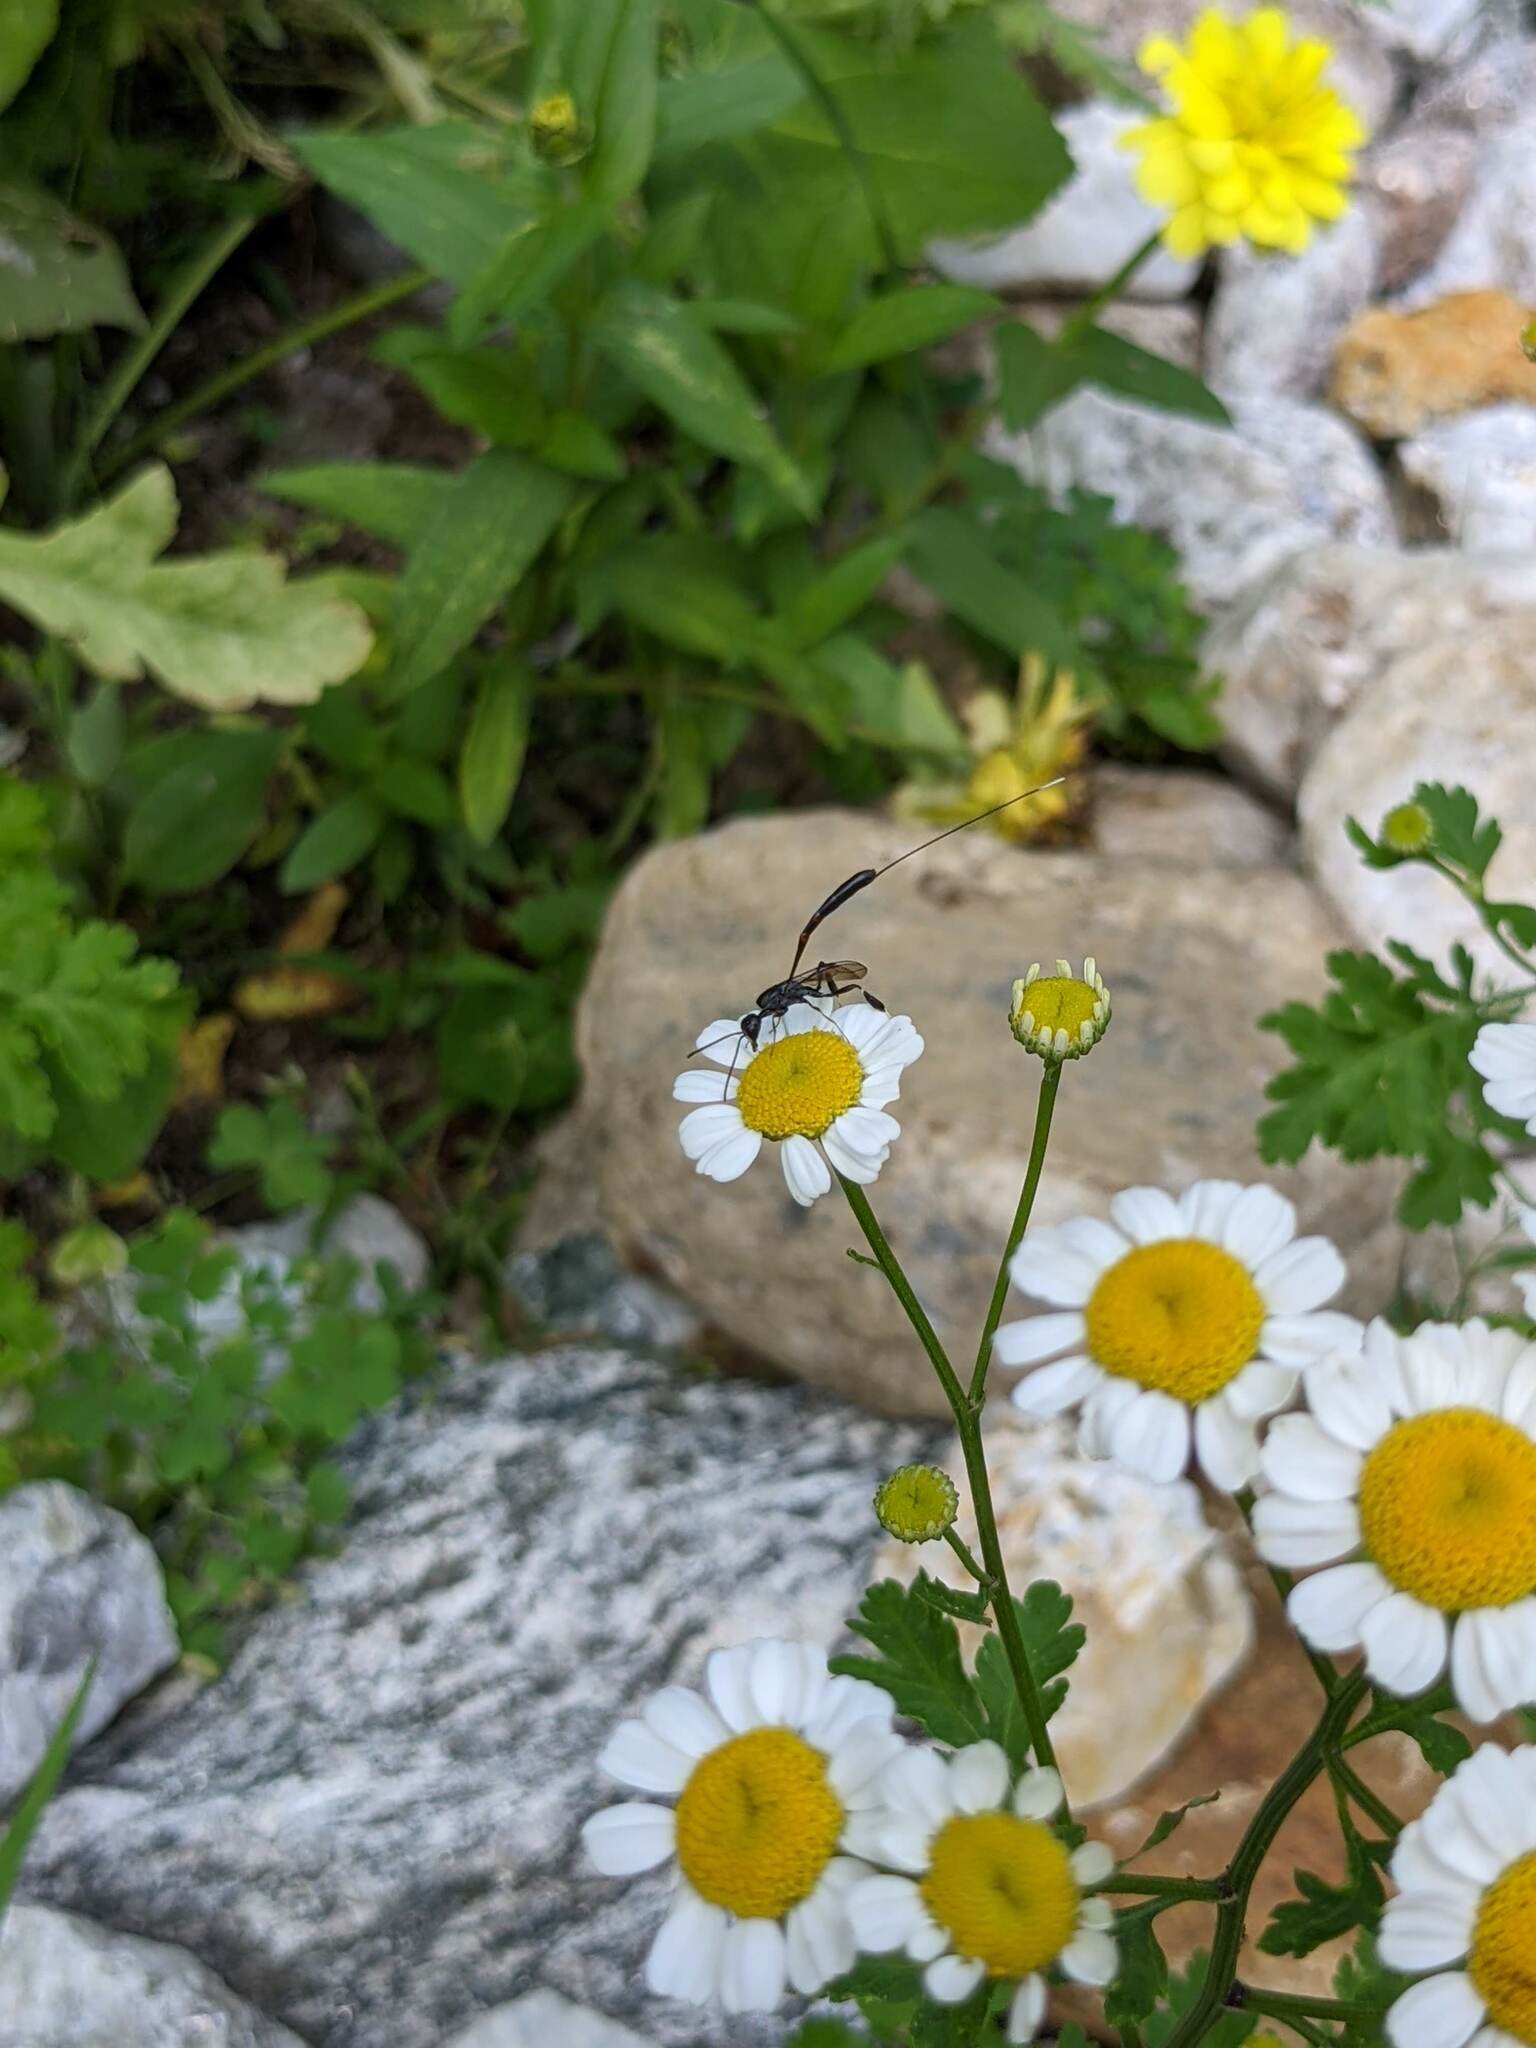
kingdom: Plantae
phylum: Tracheophyta
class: Magnoliopsida
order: Asterales
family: Asteraceae
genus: Tanacetum
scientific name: Tanacetum parthenium
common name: Feverfew
